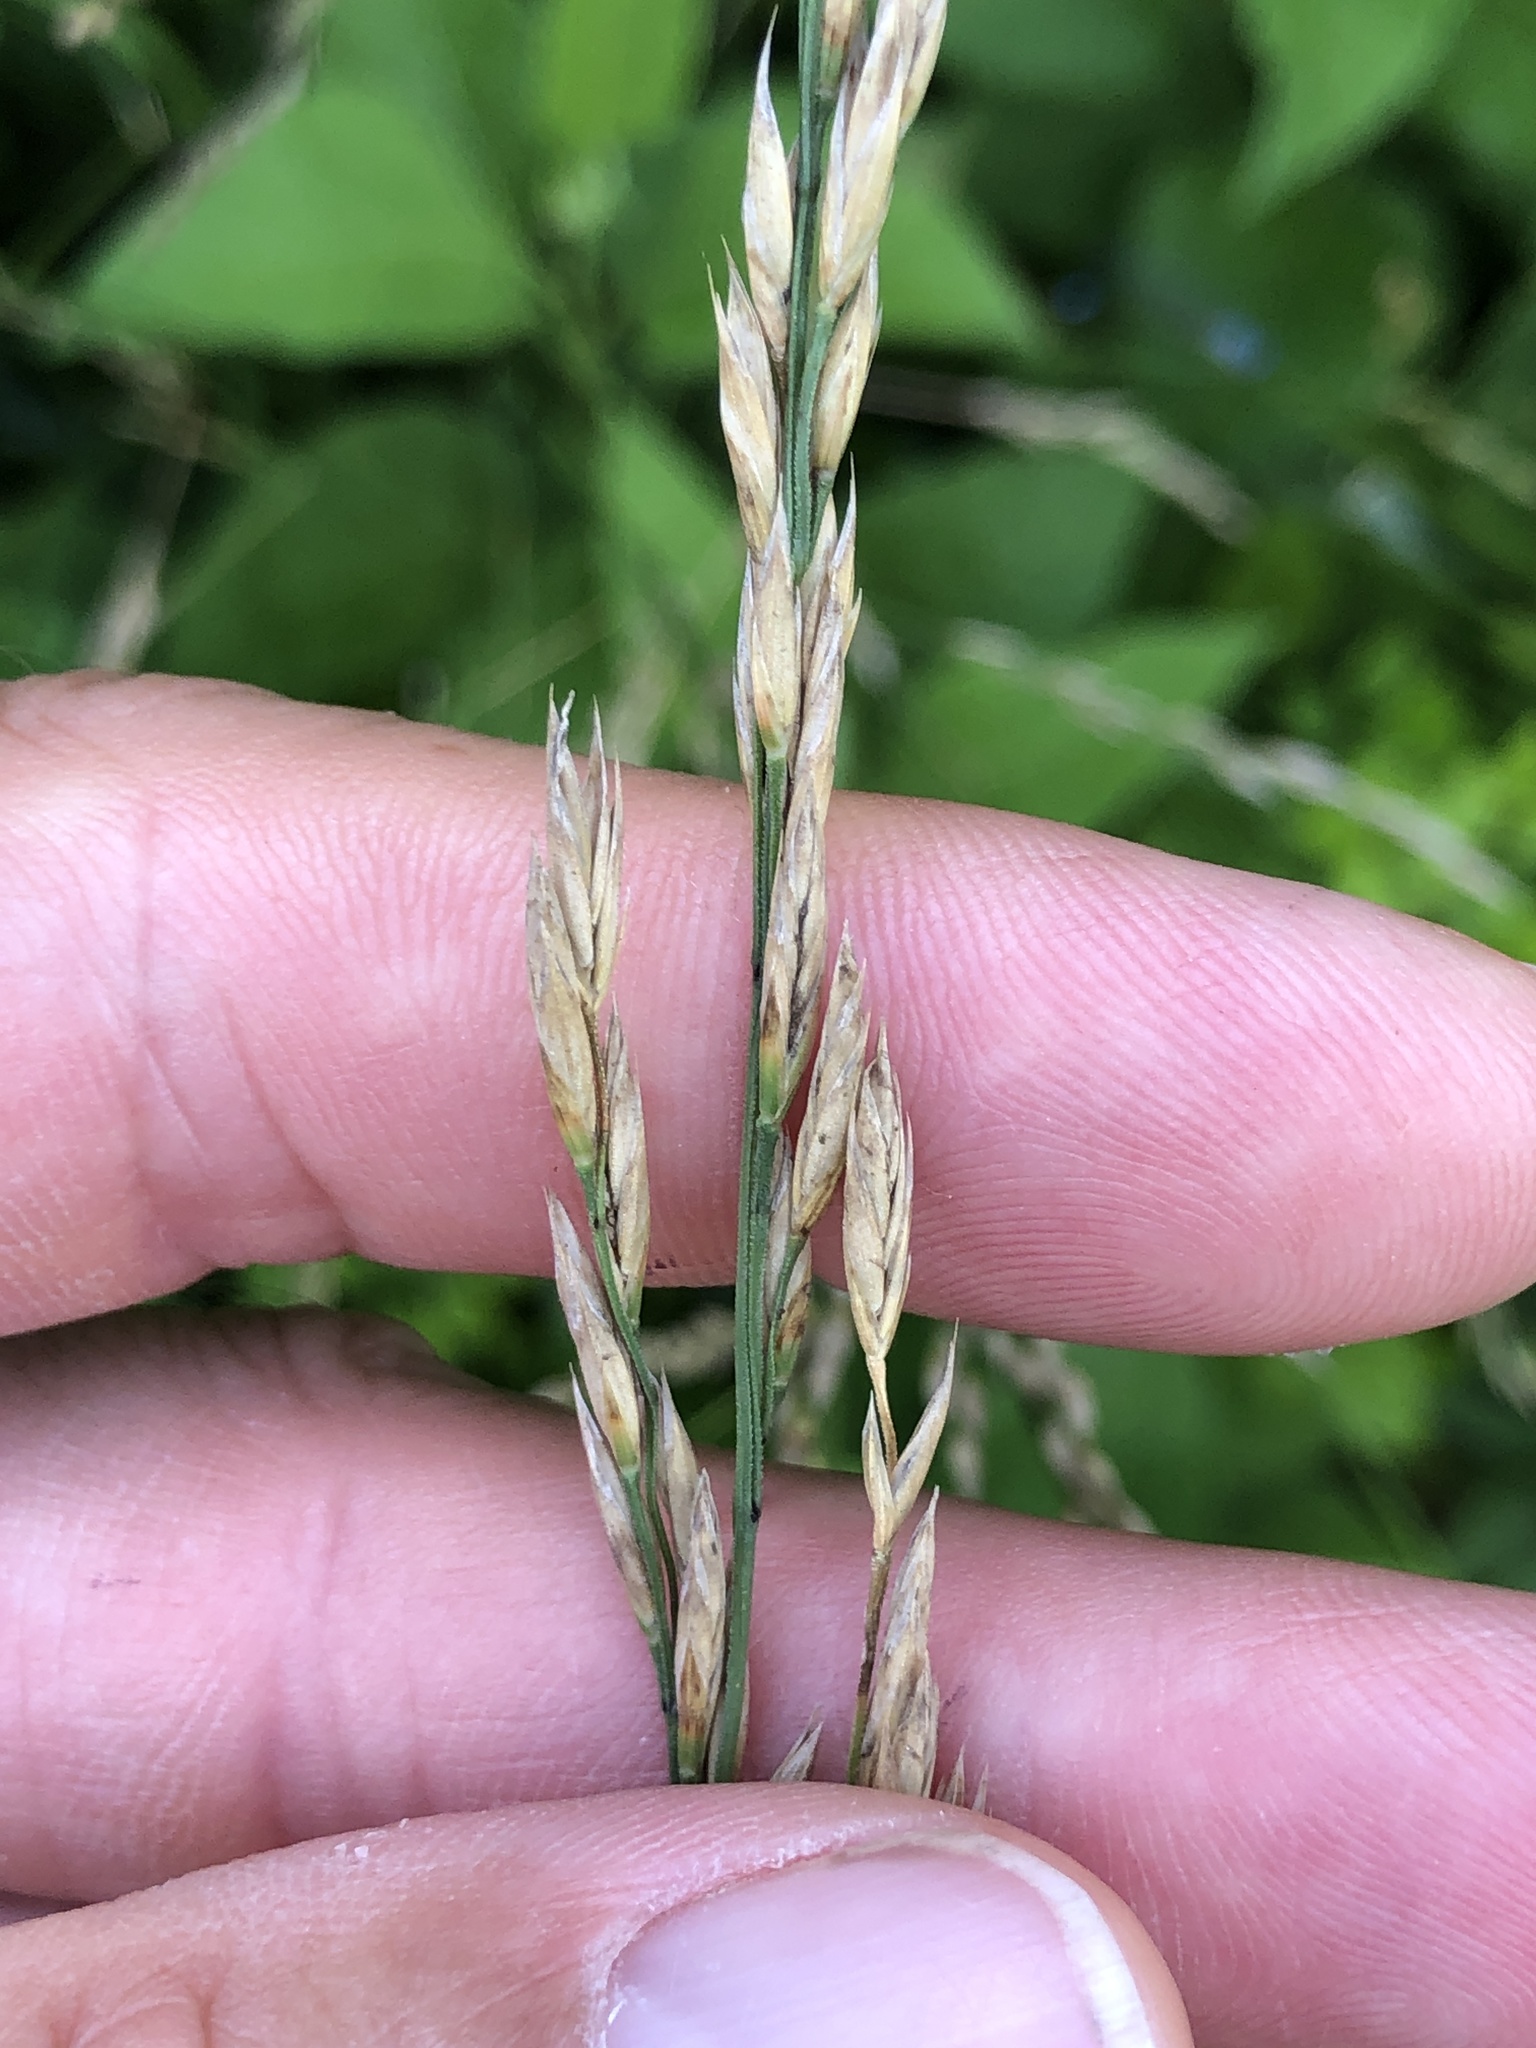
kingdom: Plantae
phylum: Tracheophyta
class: Liliopsida
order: Poales
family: Poaceae
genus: Lolium
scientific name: Lolium arundinaceum
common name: Reed fescue
